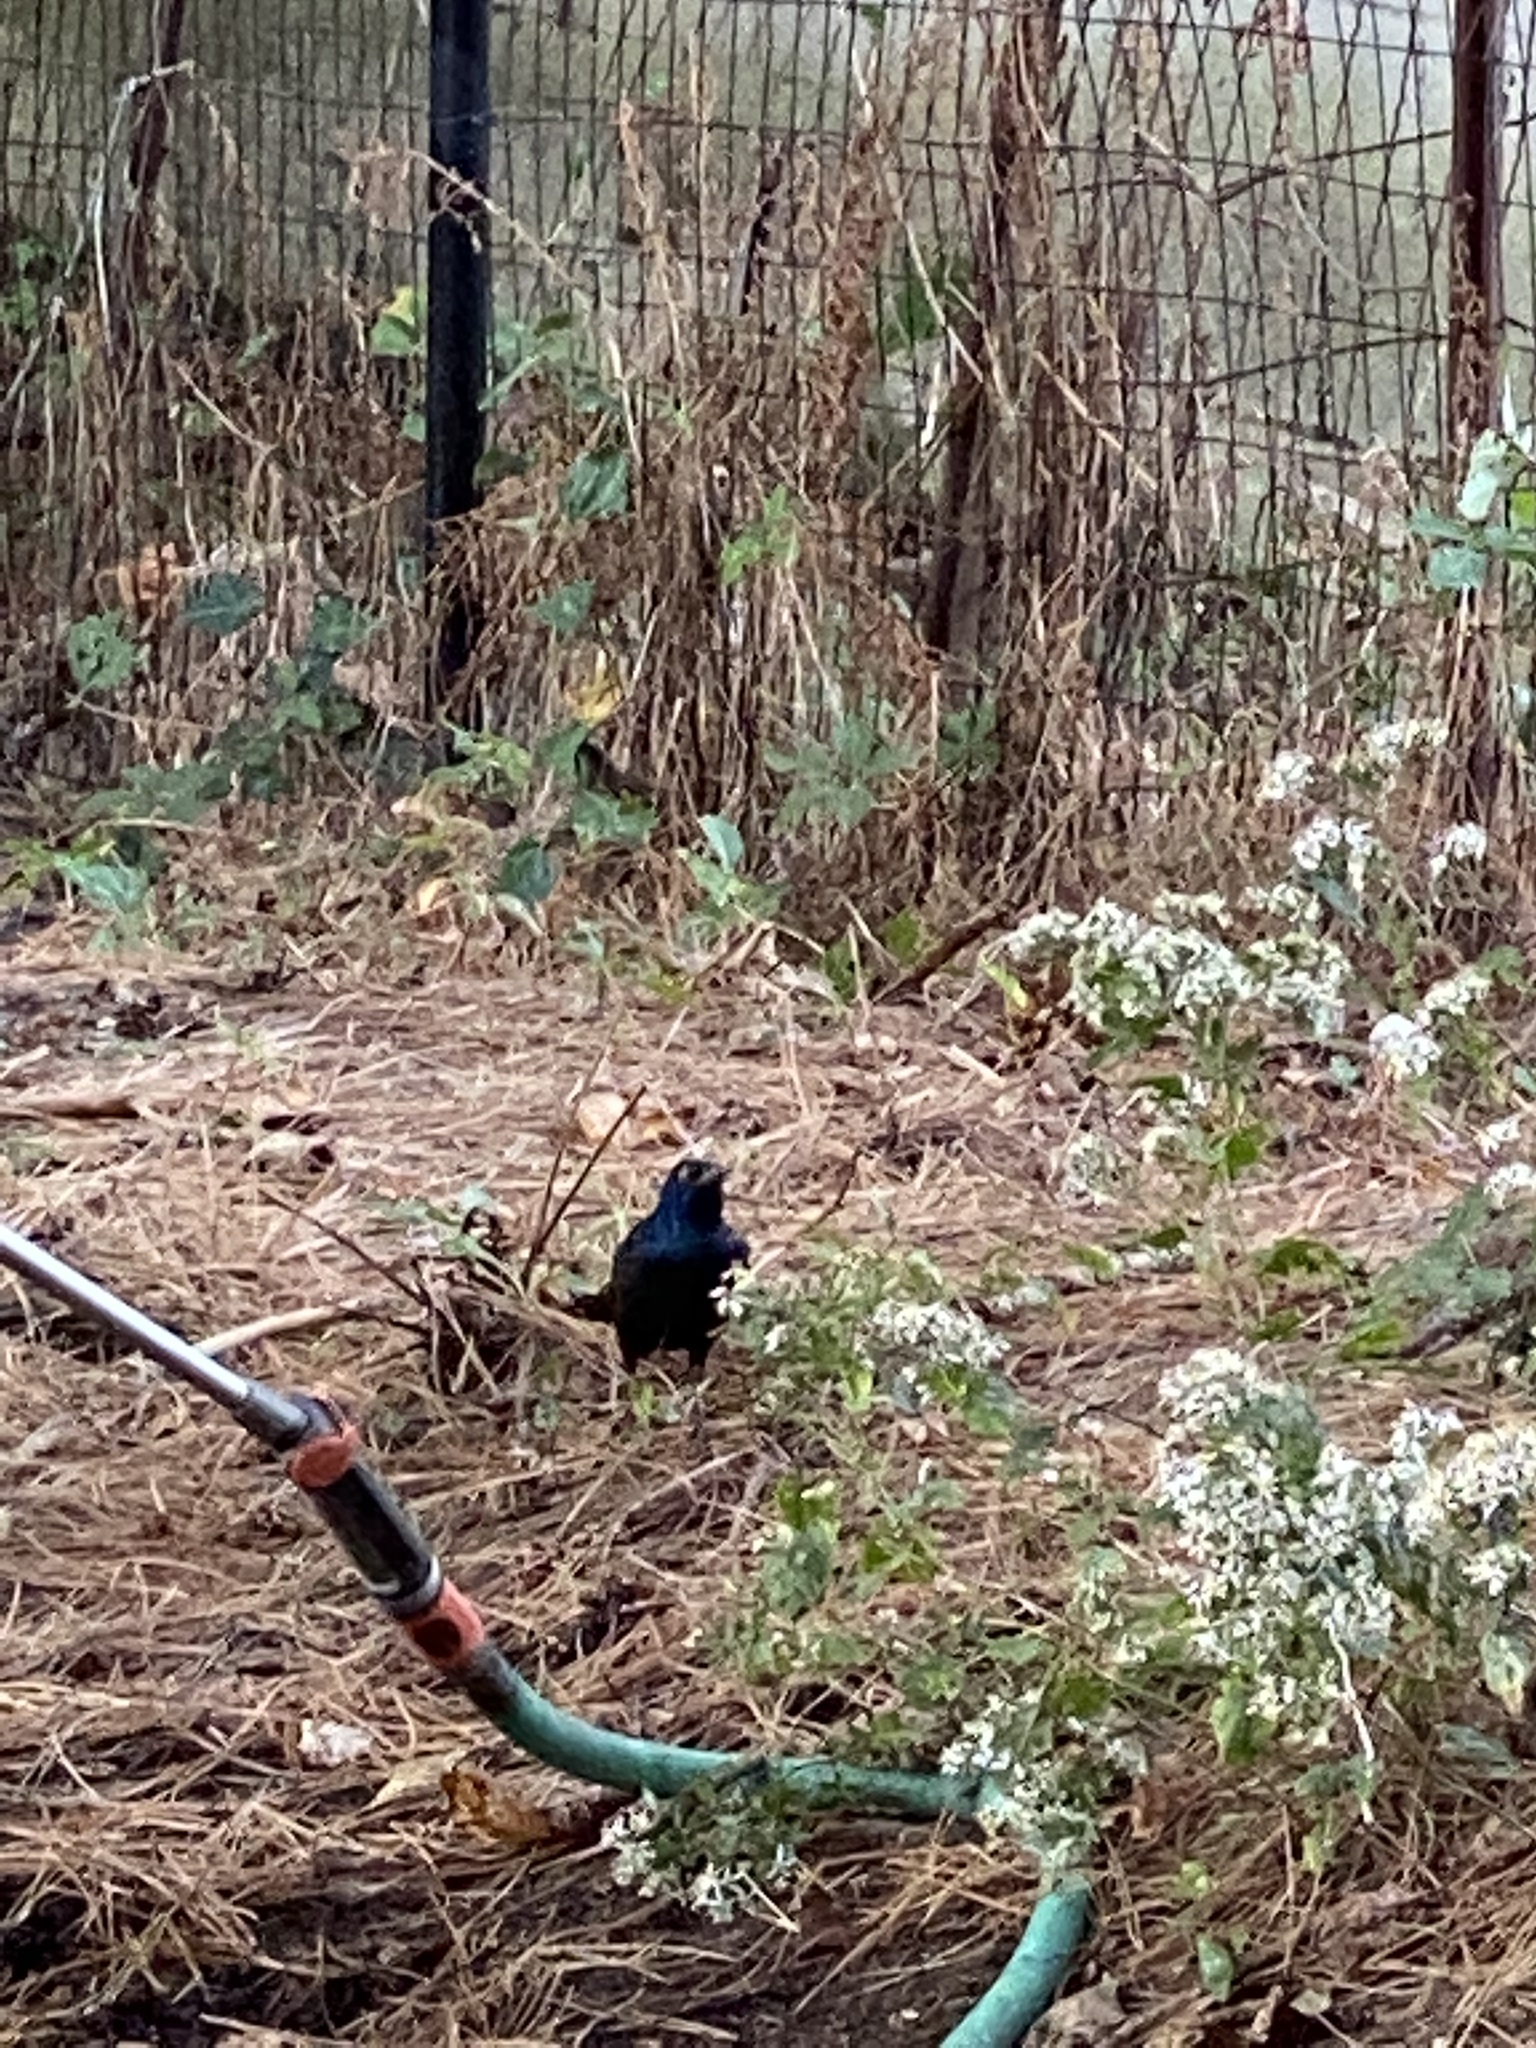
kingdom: Animalia
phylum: Chordata
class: Aves
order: Passeriformes
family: Icteridae
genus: Quiscalus
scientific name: Quiscalus quiscula
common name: Common grackle
